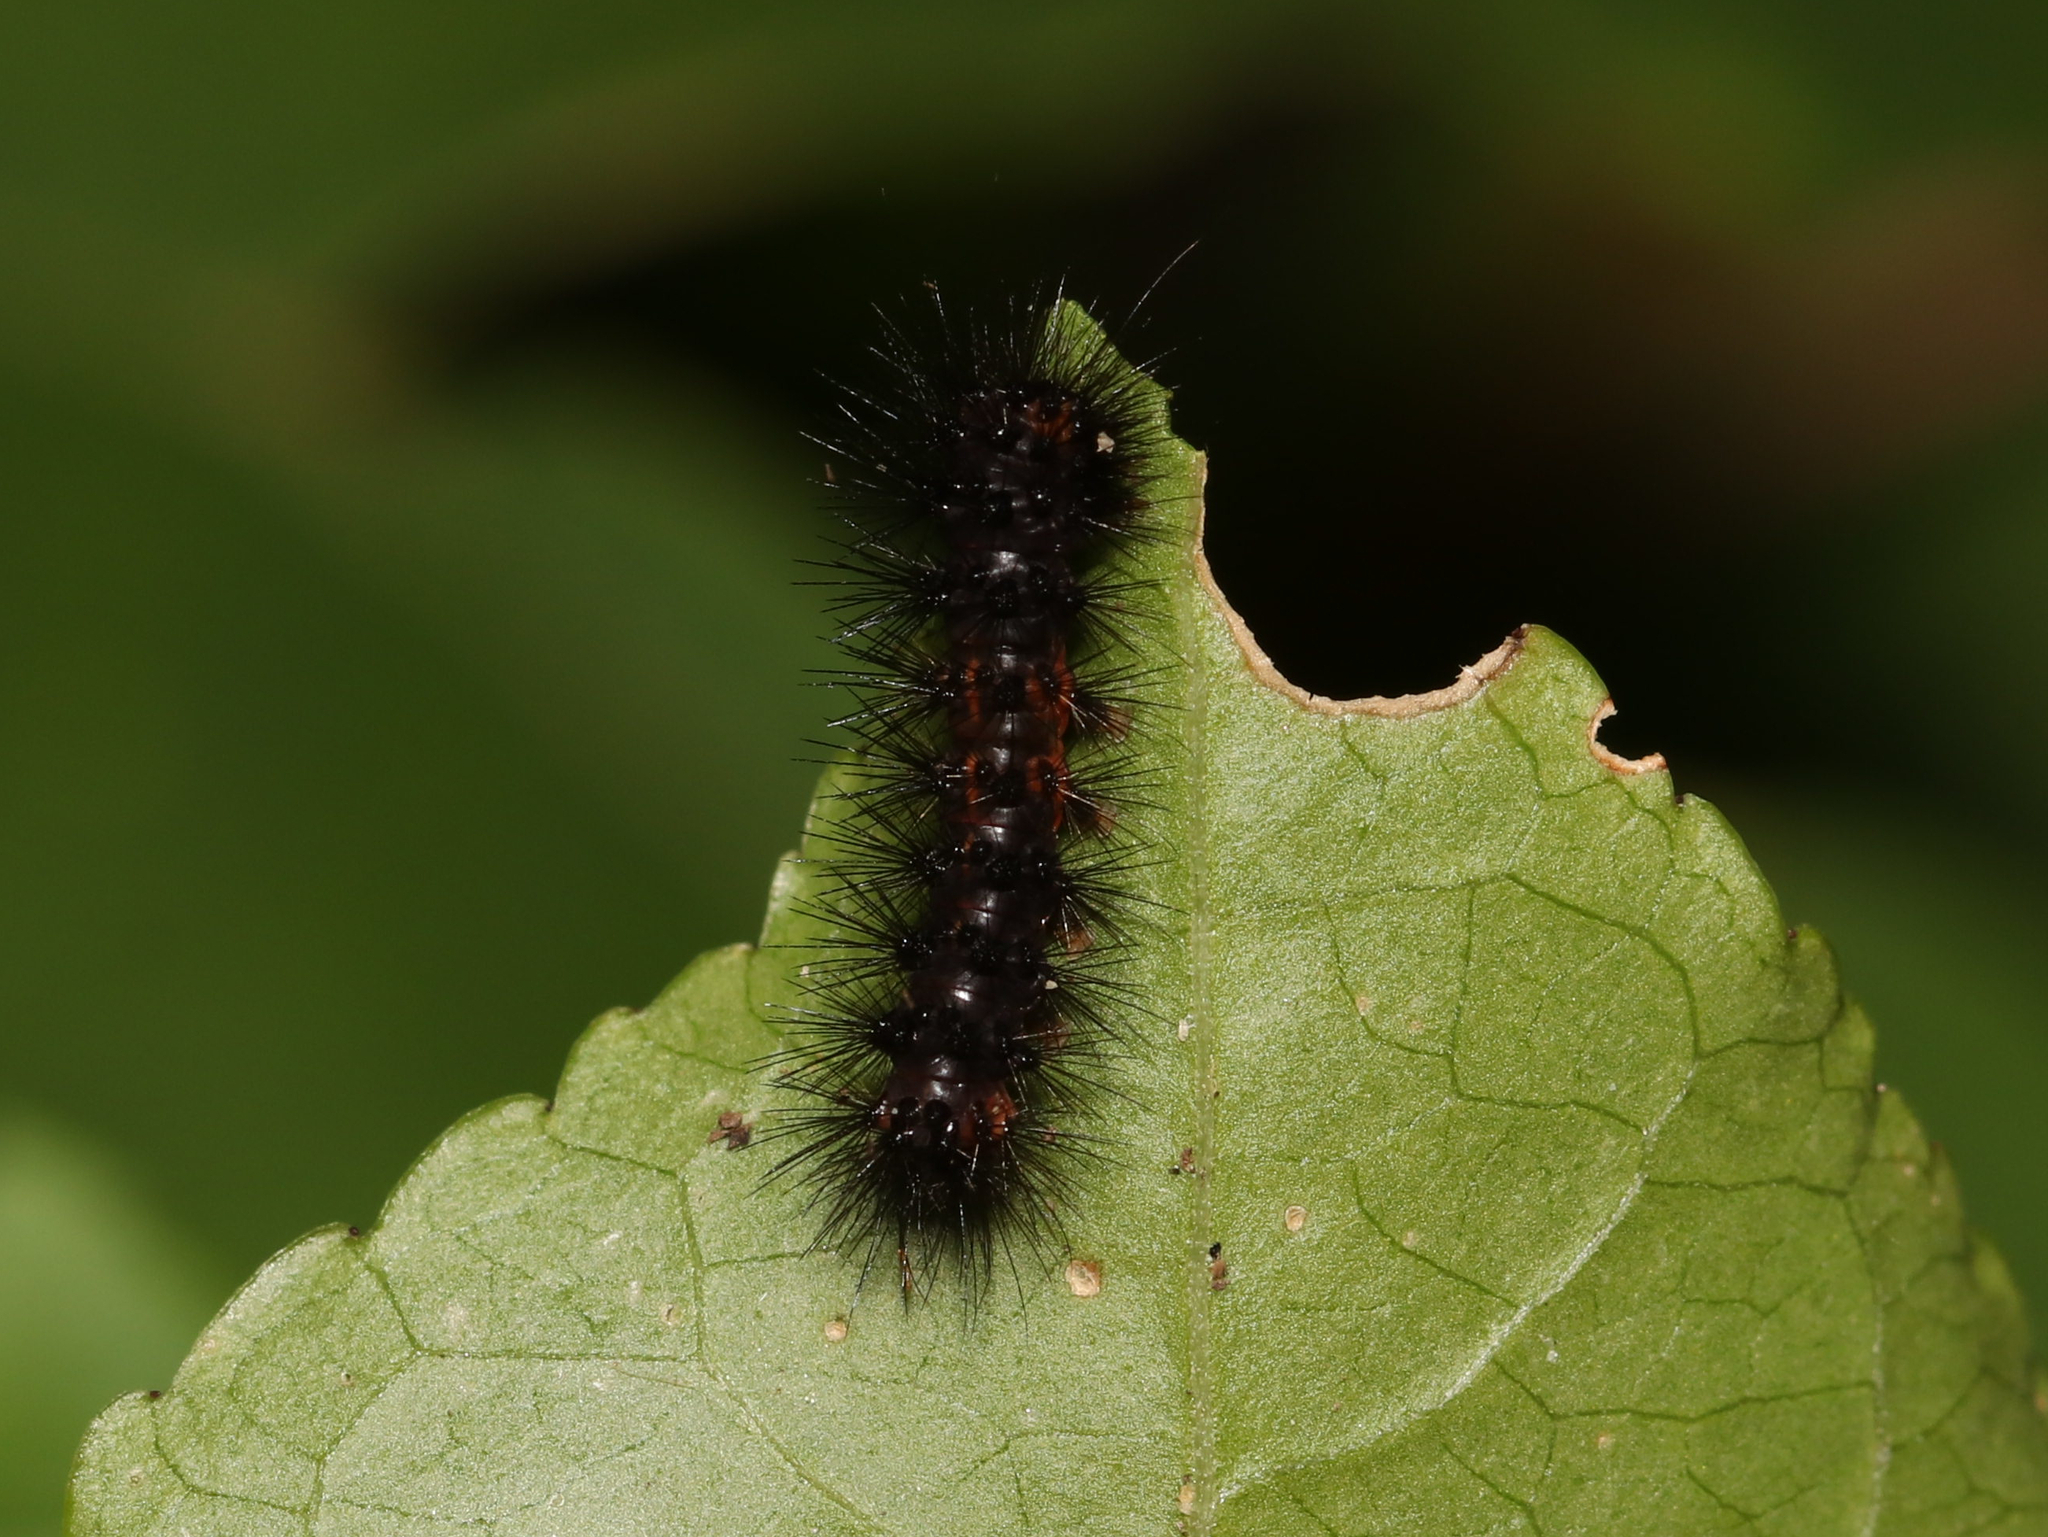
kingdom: Animalia
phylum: Arthropoda
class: Insecta
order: Lepidoptera
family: Erebidae
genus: Hypercompe
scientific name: Hypercompe scribonia
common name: Giant leopard moth
